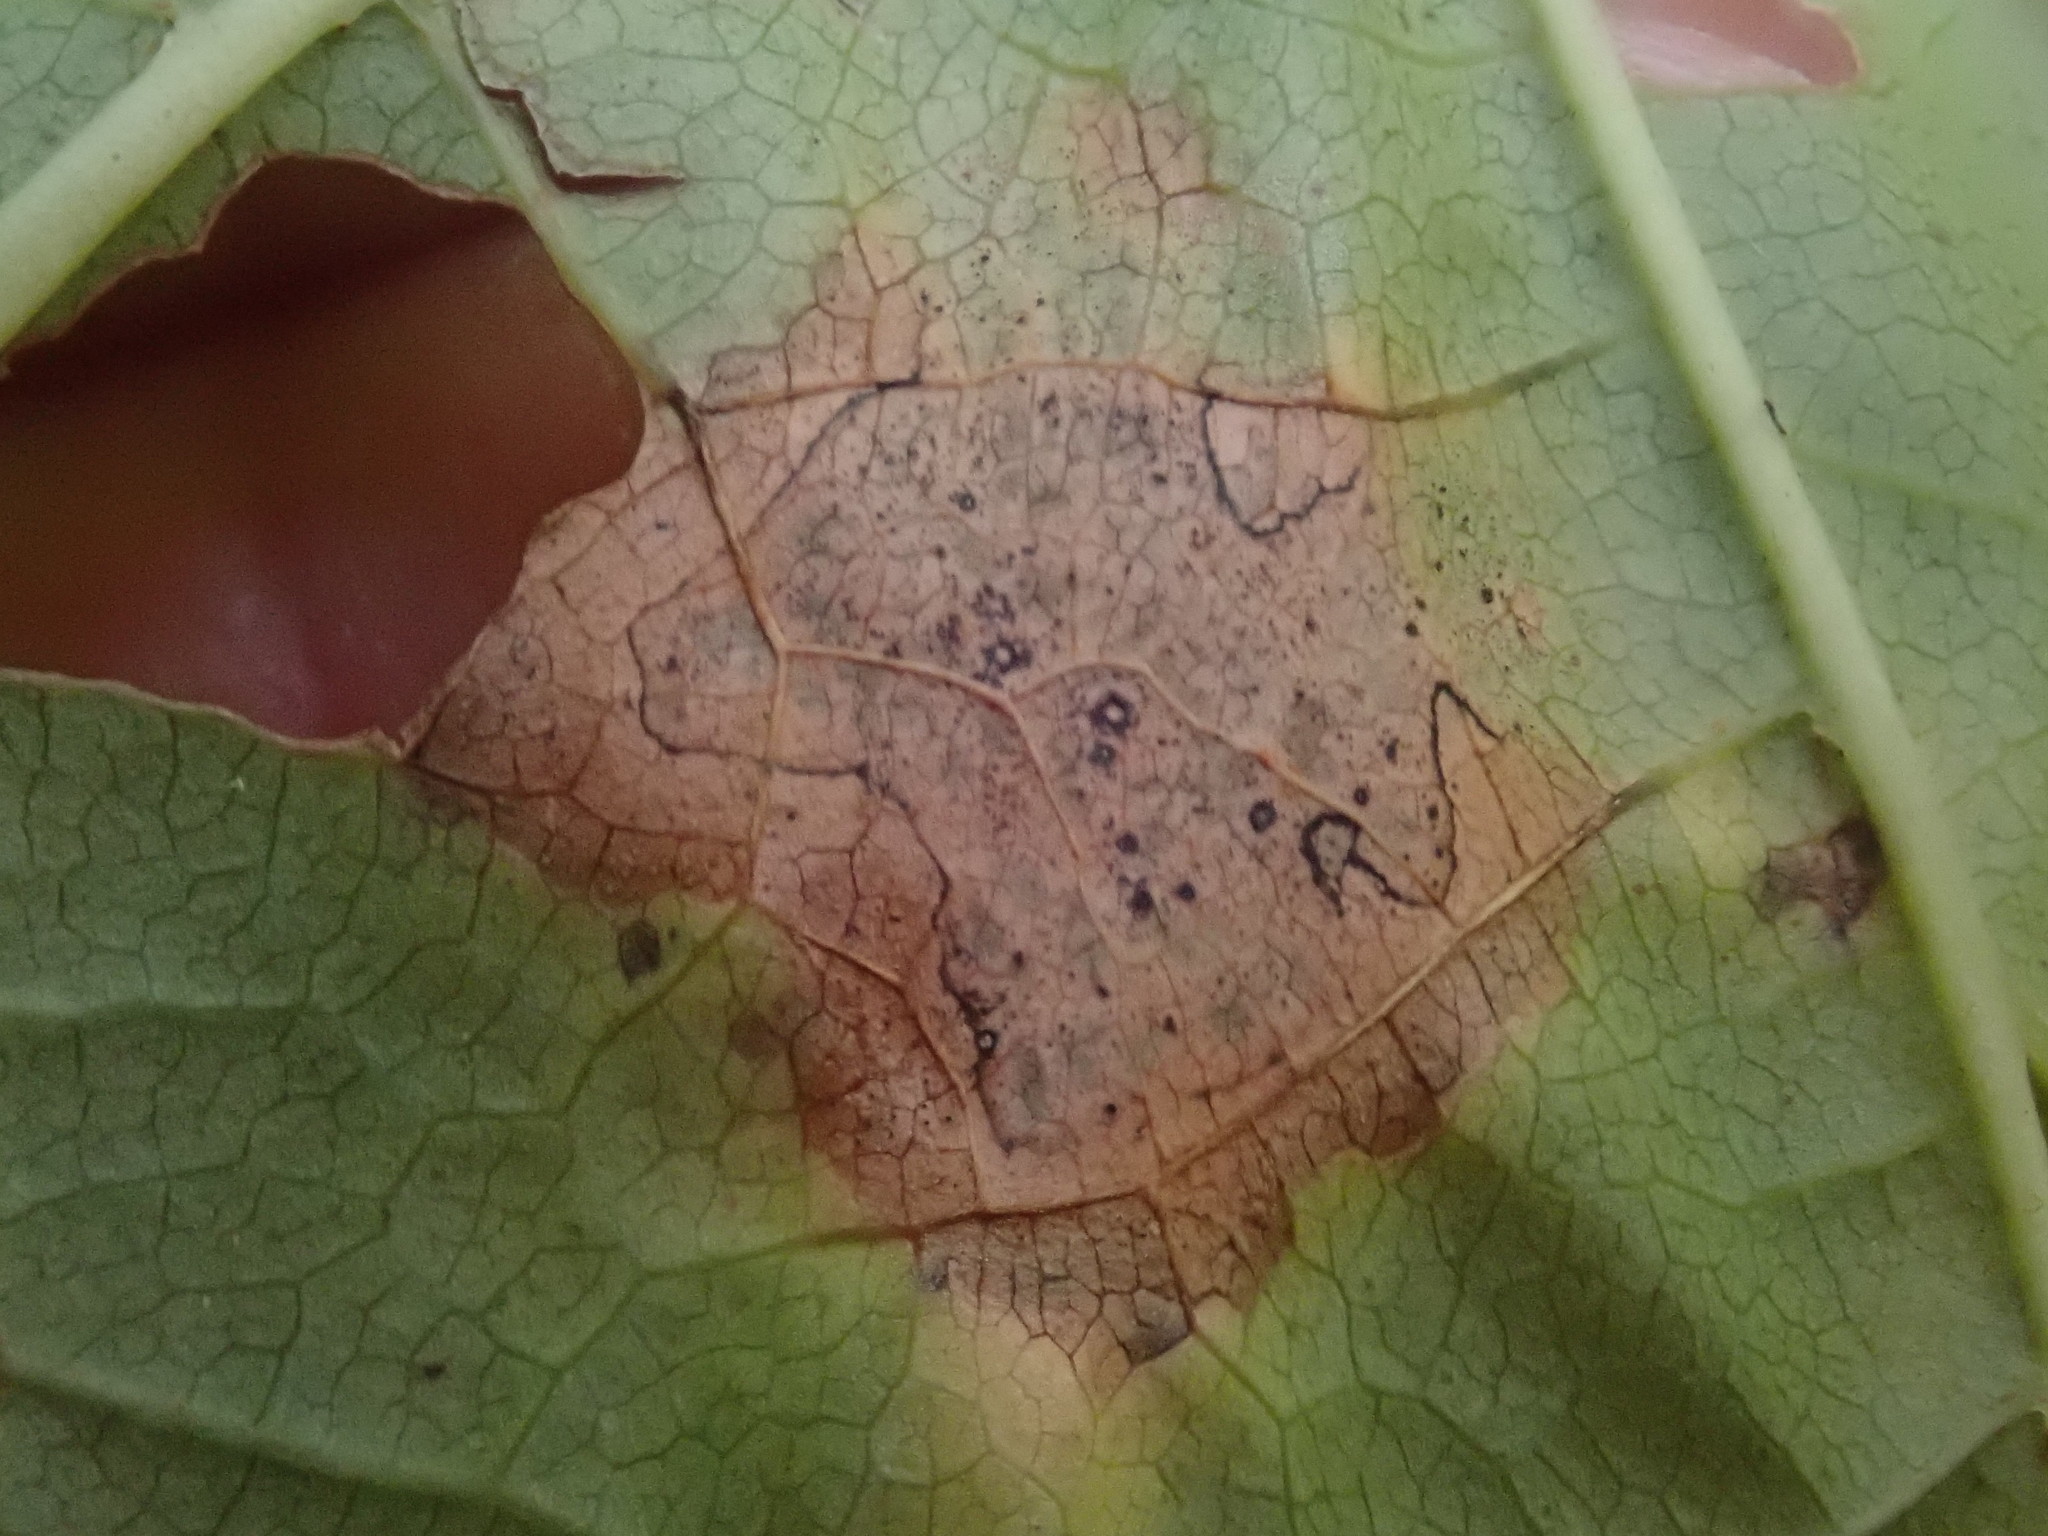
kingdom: Fungi
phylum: Ascomycota
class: Leotiomycetes
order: Rhytismatales
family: Rhytismataceae
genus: Rhytisma
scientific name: Rhytisma punctatum
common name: Speckled tar spot
